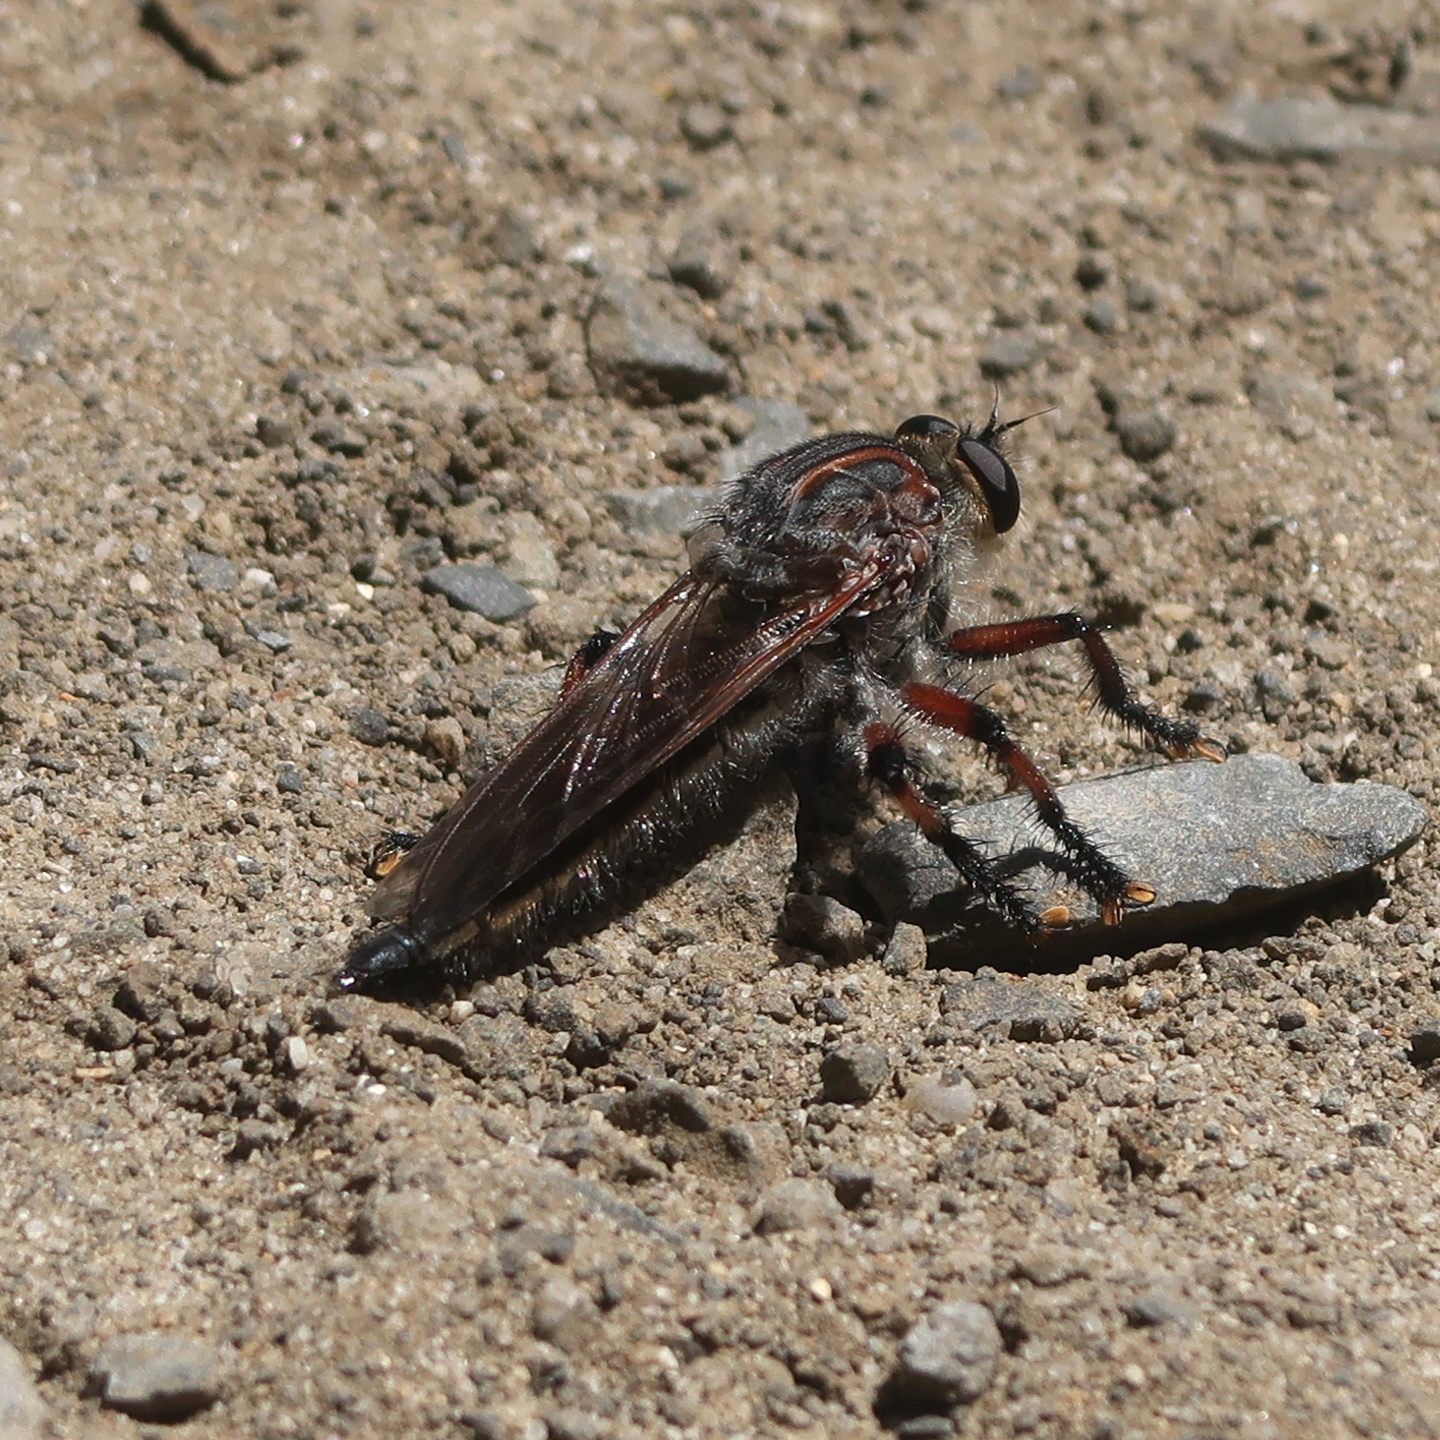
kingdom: Animalia
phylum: Arthropoda
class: Insecta
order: Diptera
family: Asilidae
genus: Neoaratus
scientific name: Neoaratus hercules
